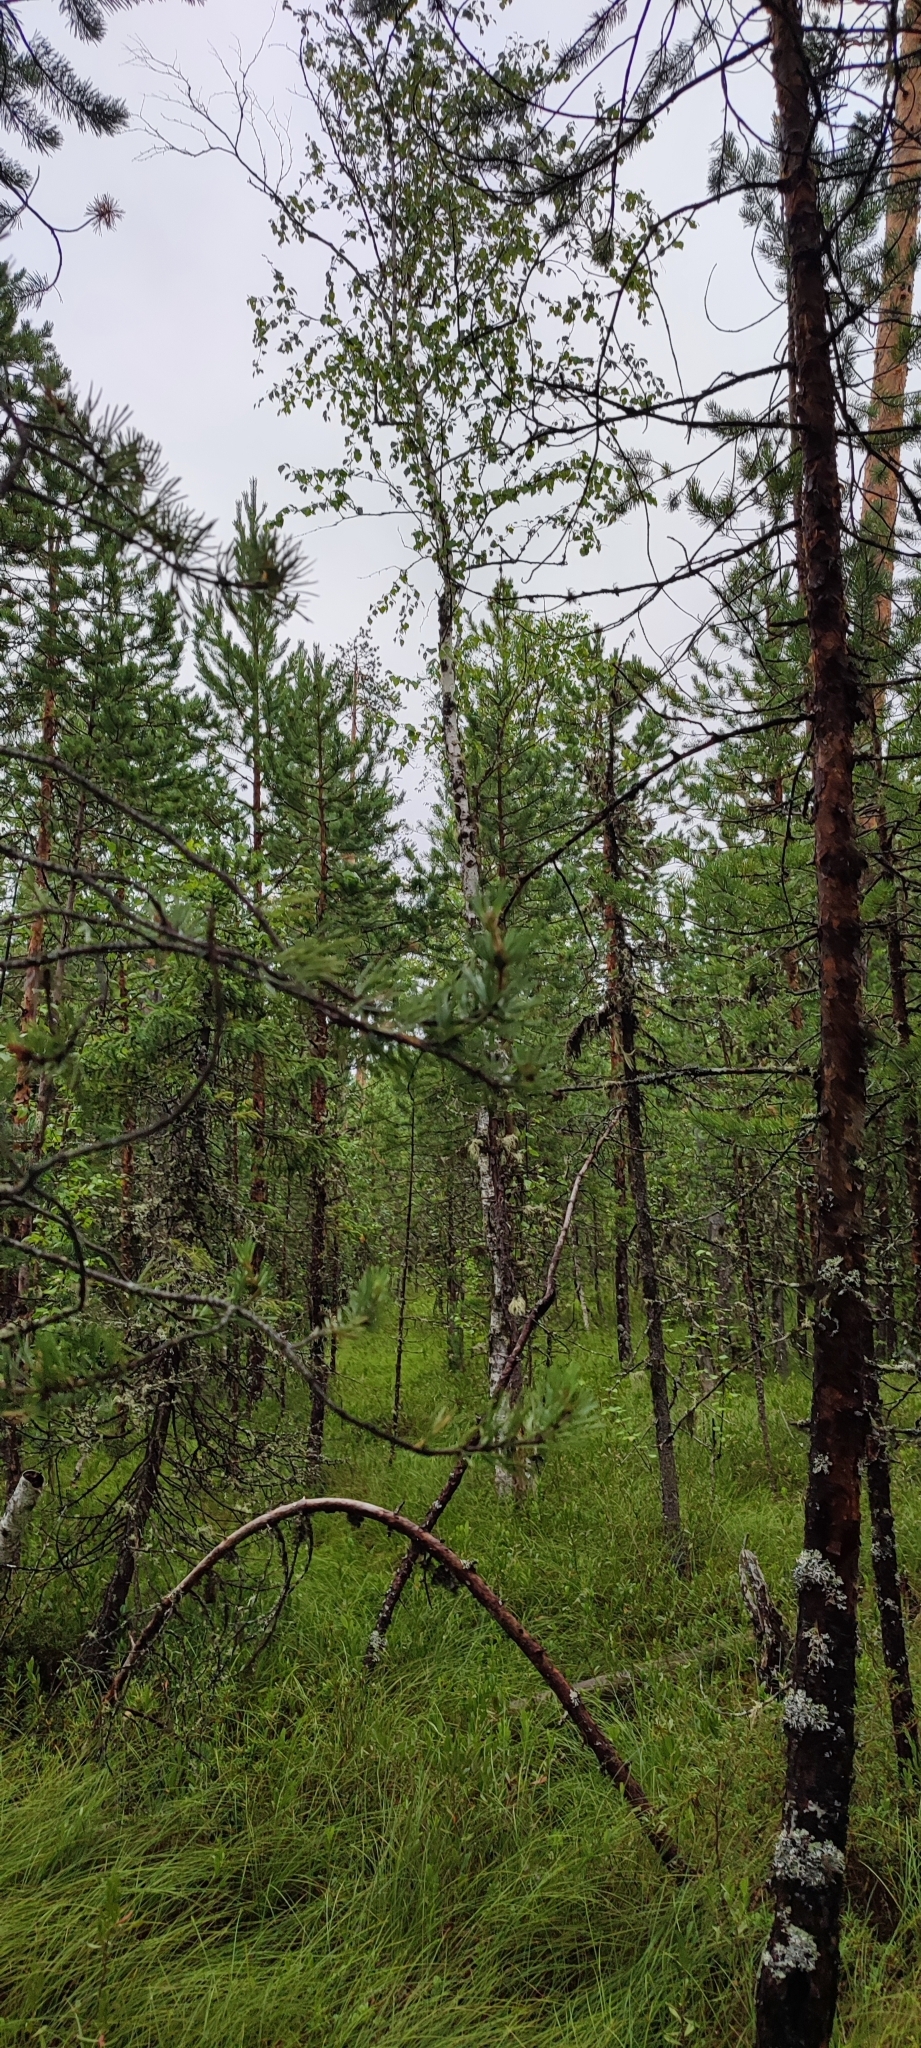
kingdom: Plantae
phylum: Tracheophyta
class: Magnoliopsida
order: Fagales
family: Betulaceae
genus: Betula
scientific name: Betula pubescens
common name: Downy birch
